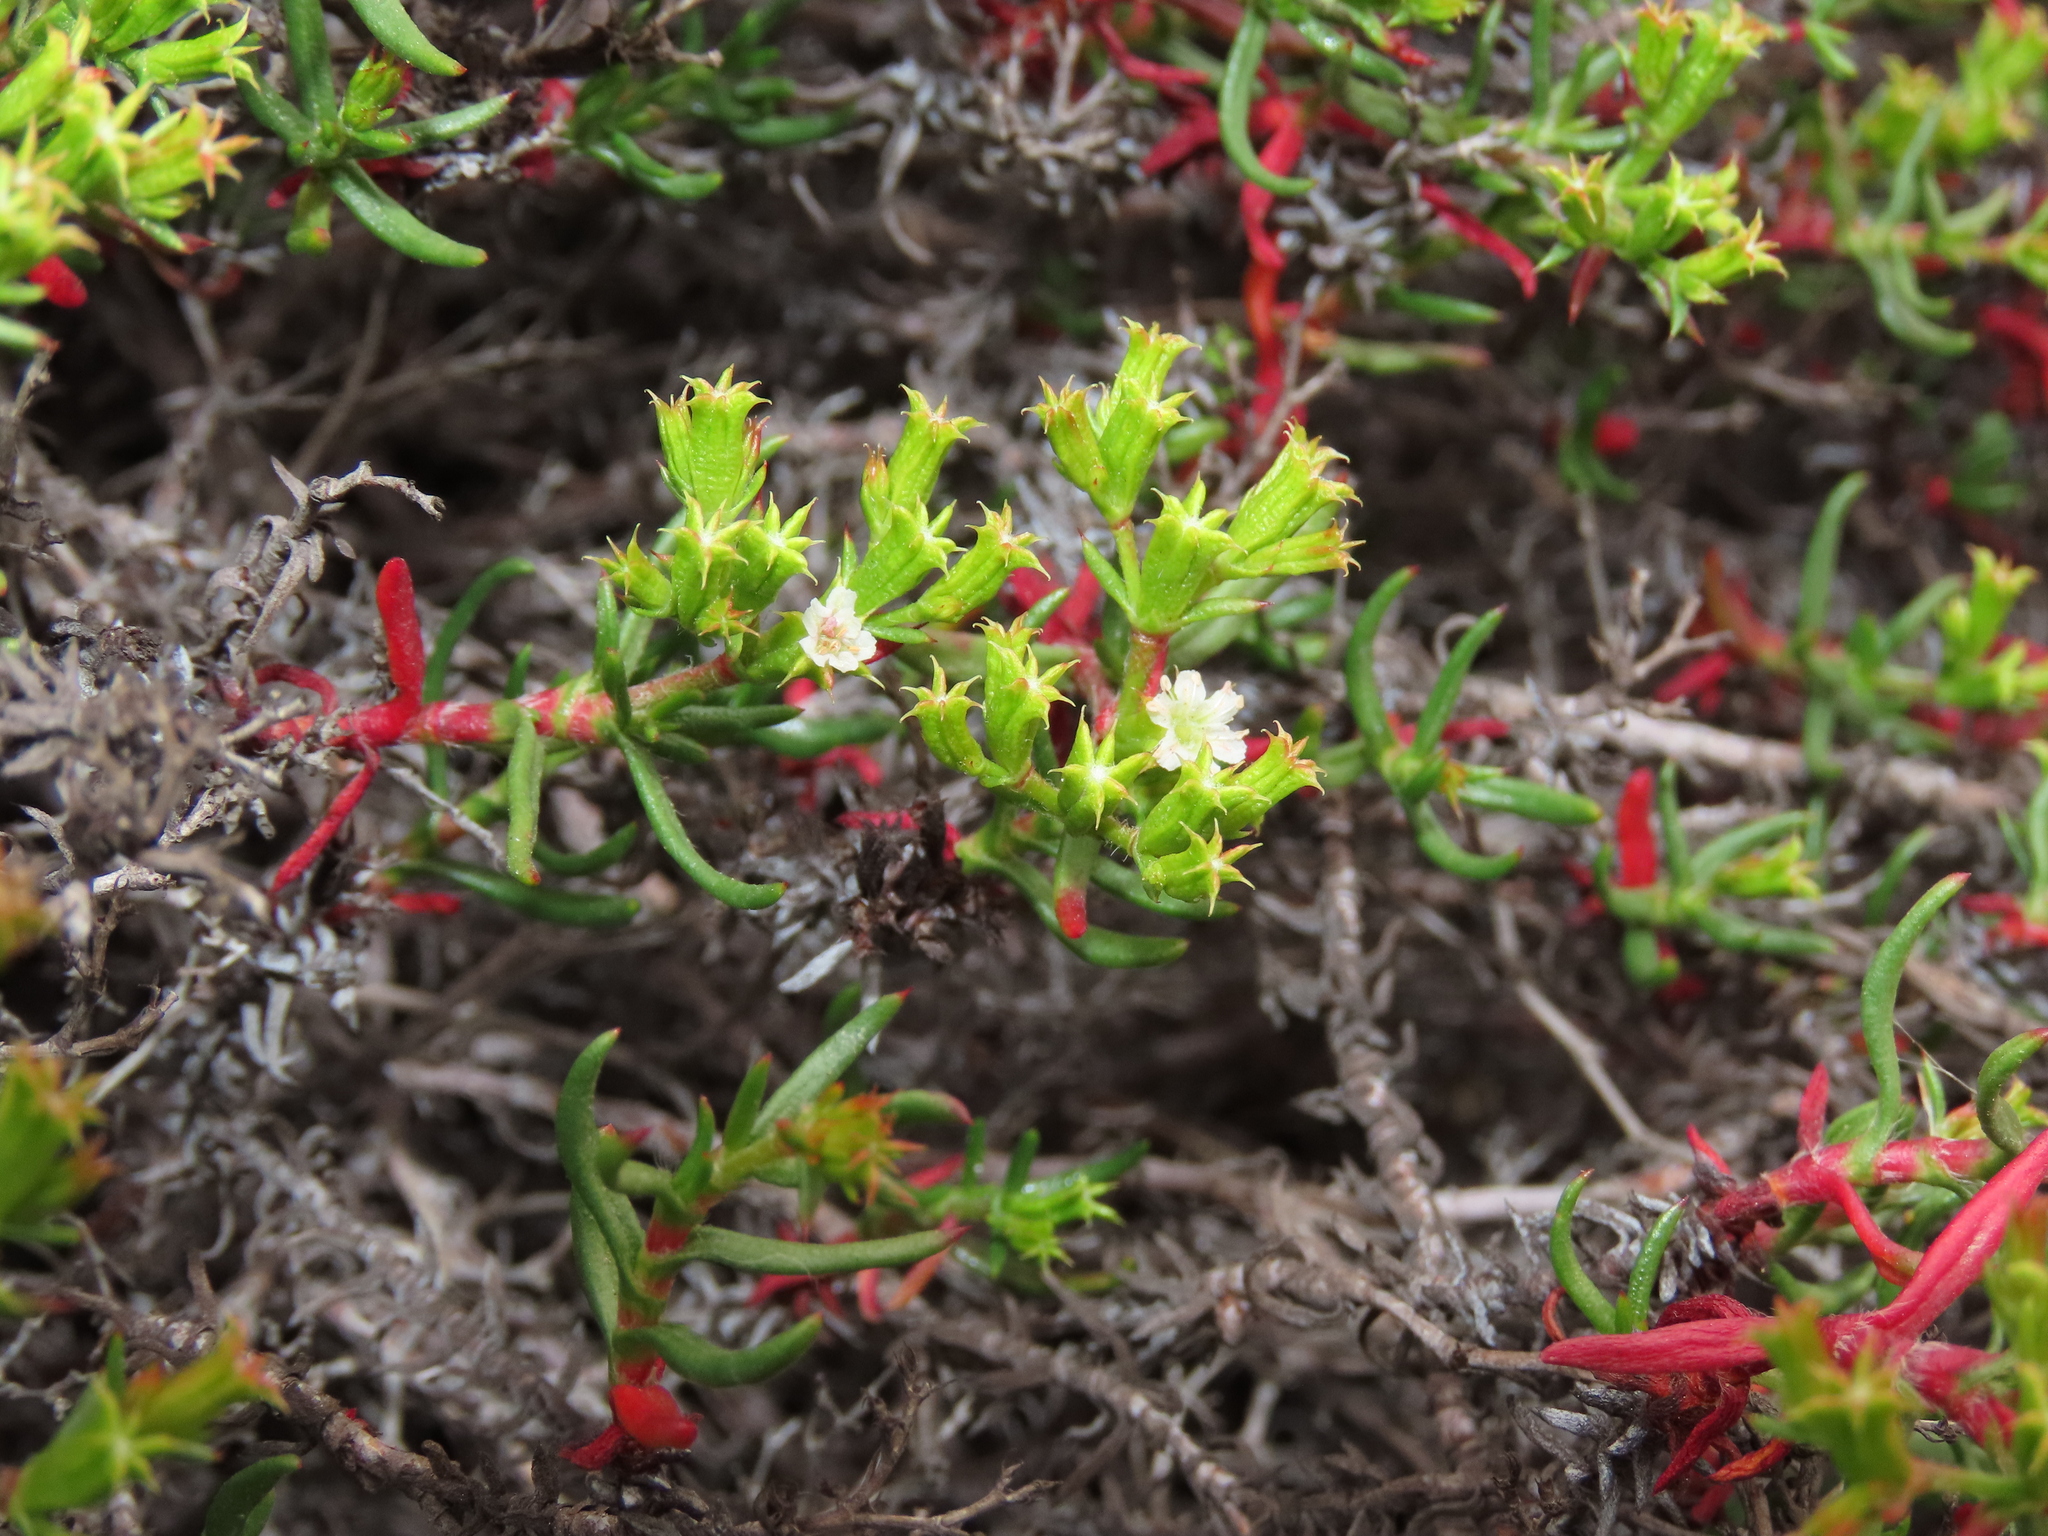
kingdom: Plantae
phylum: Tracheophyta
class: Magnoliopsida
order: Caryophyllales
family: Polygonaceae
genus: Chorizanthe
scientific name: Chorizanthe glabrescens
